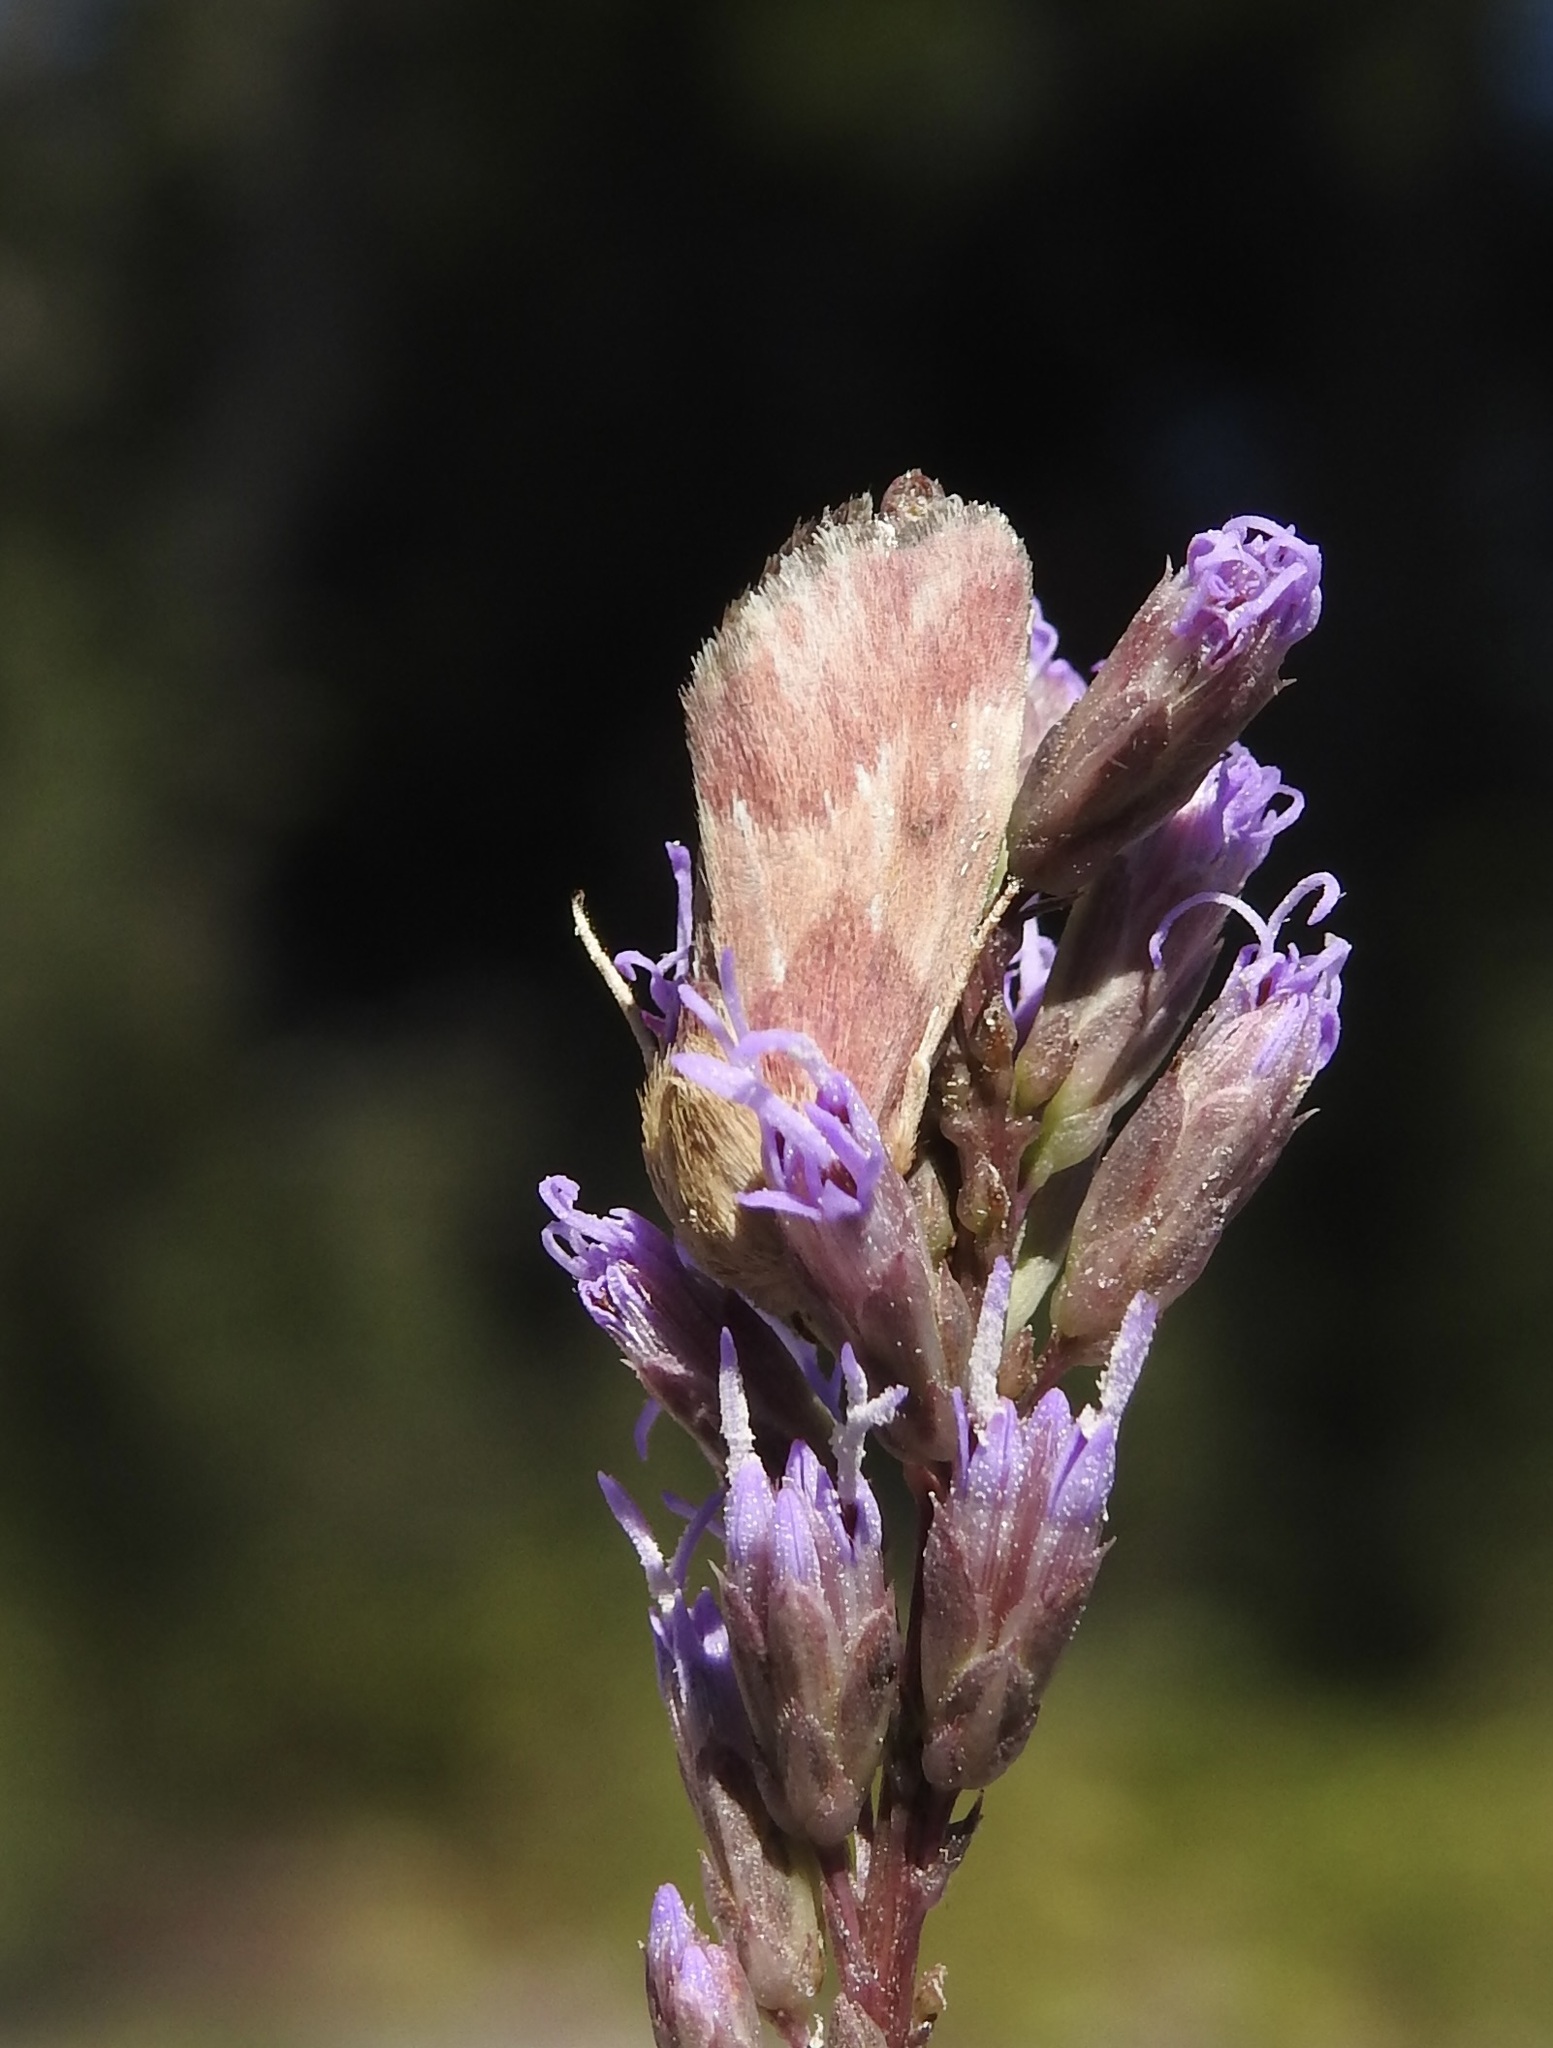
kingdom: Animalia
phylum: Arthropoda
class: Insecta
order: Lepidoptera
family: Noctuidae
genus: Schinia
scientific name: Schinia sanguinea
